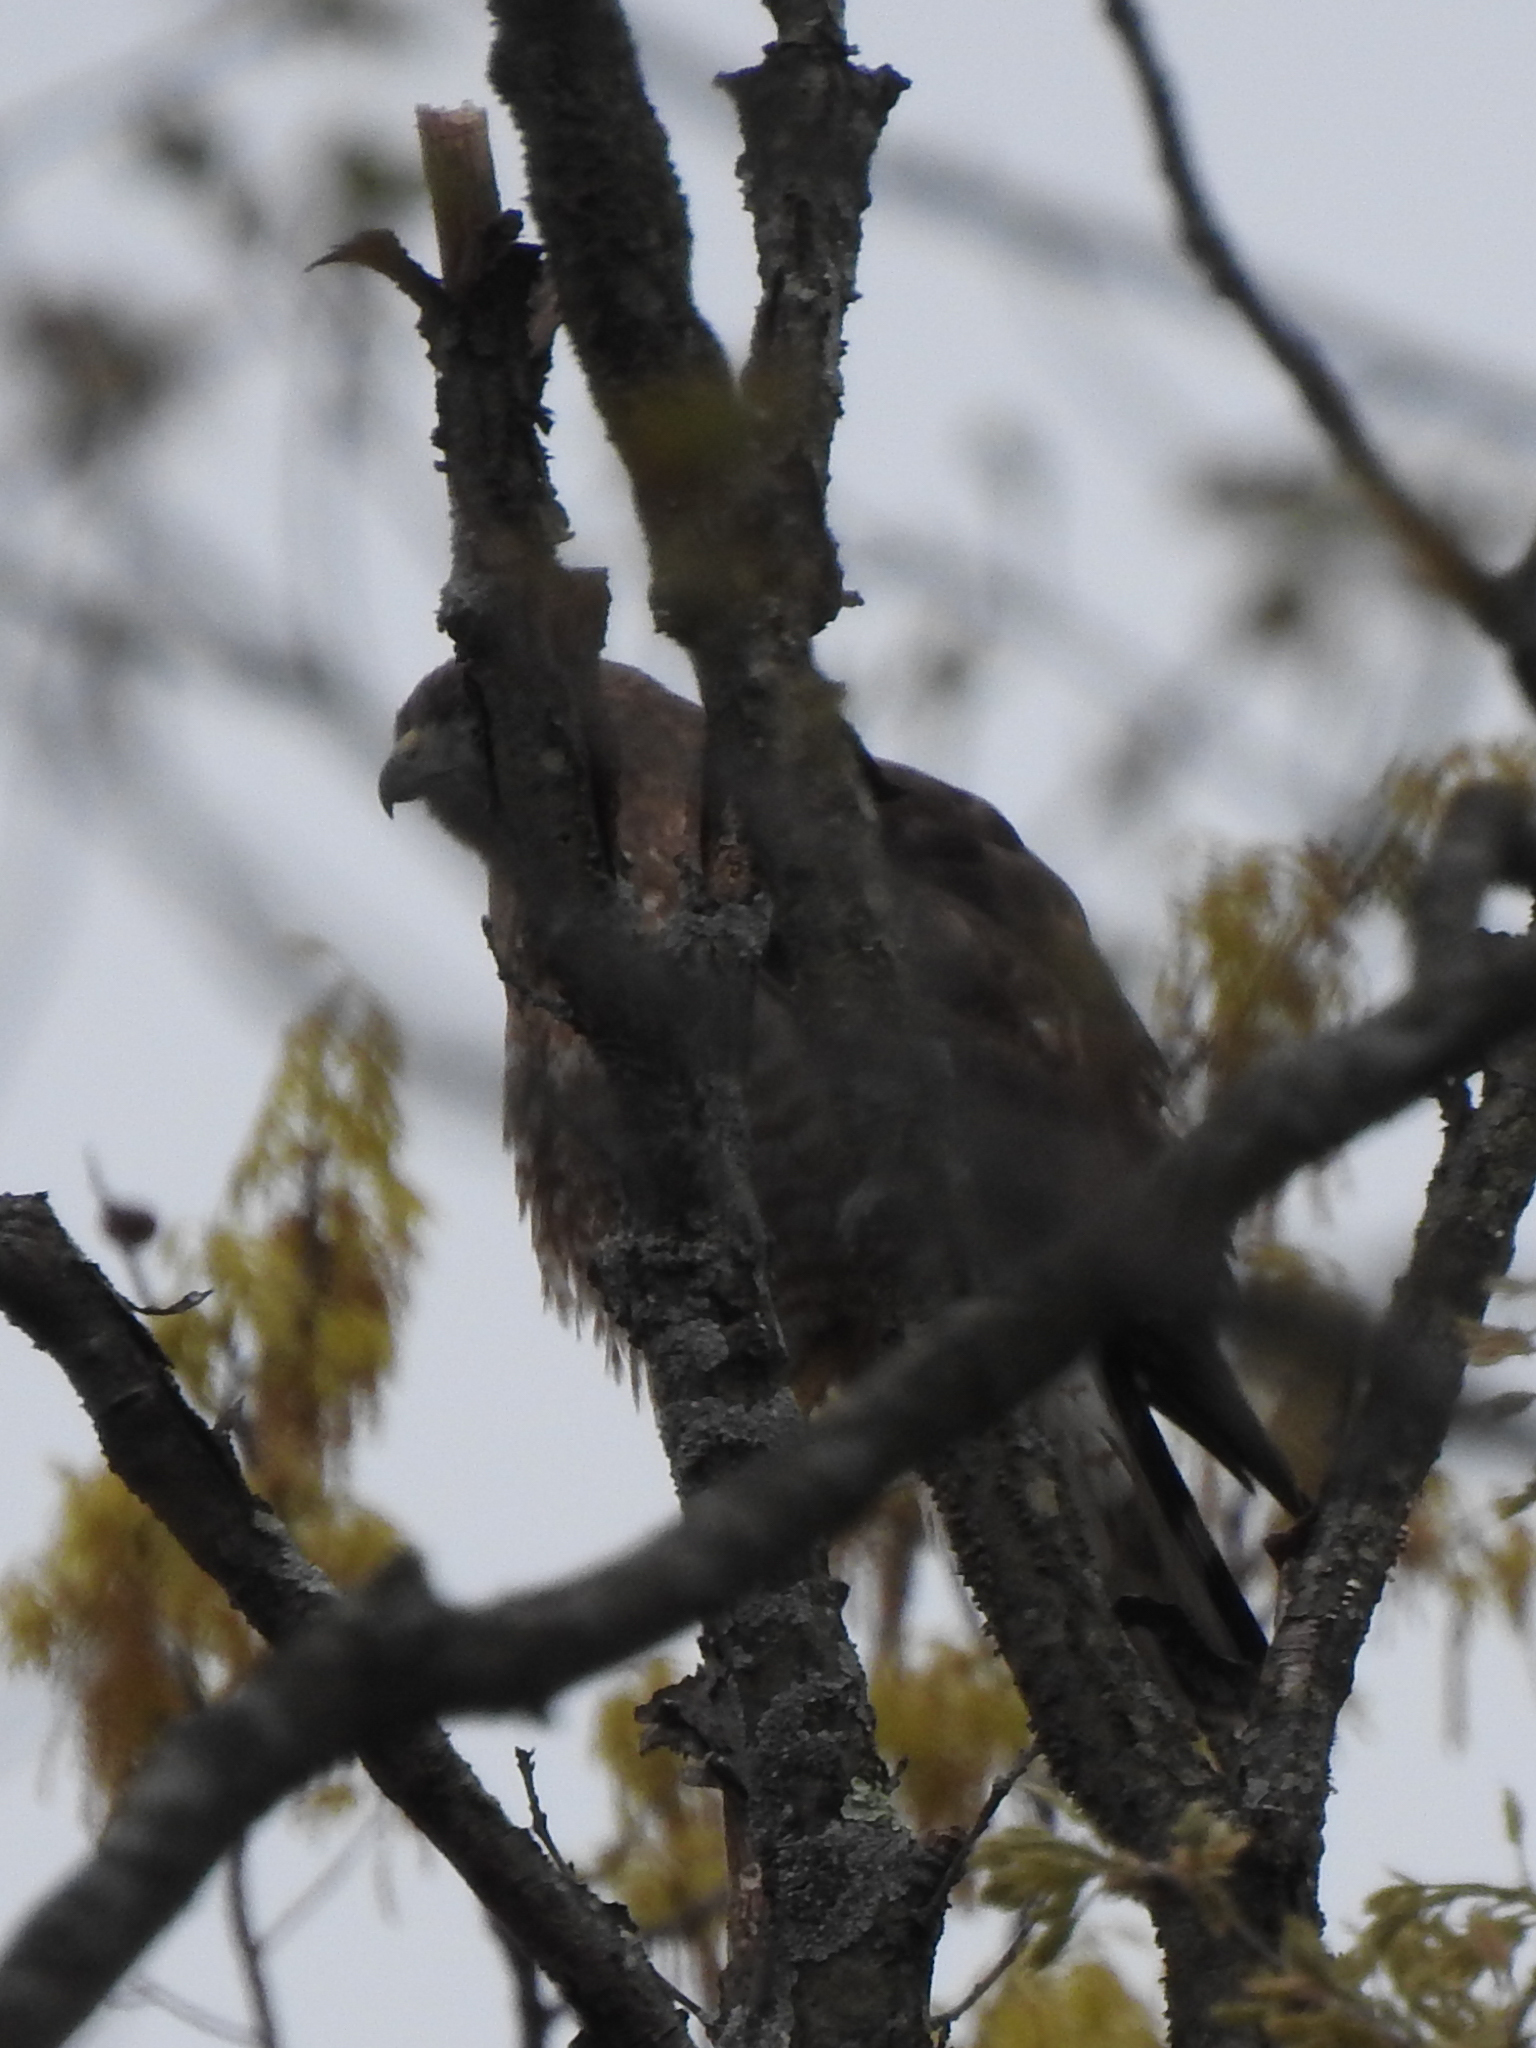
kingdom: Animalia
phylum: Chordata
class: Aves
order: Accipitriformes
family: Accipitridae
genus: Buteo
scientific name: Buteo platypterus
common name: Broad-winged hawk
